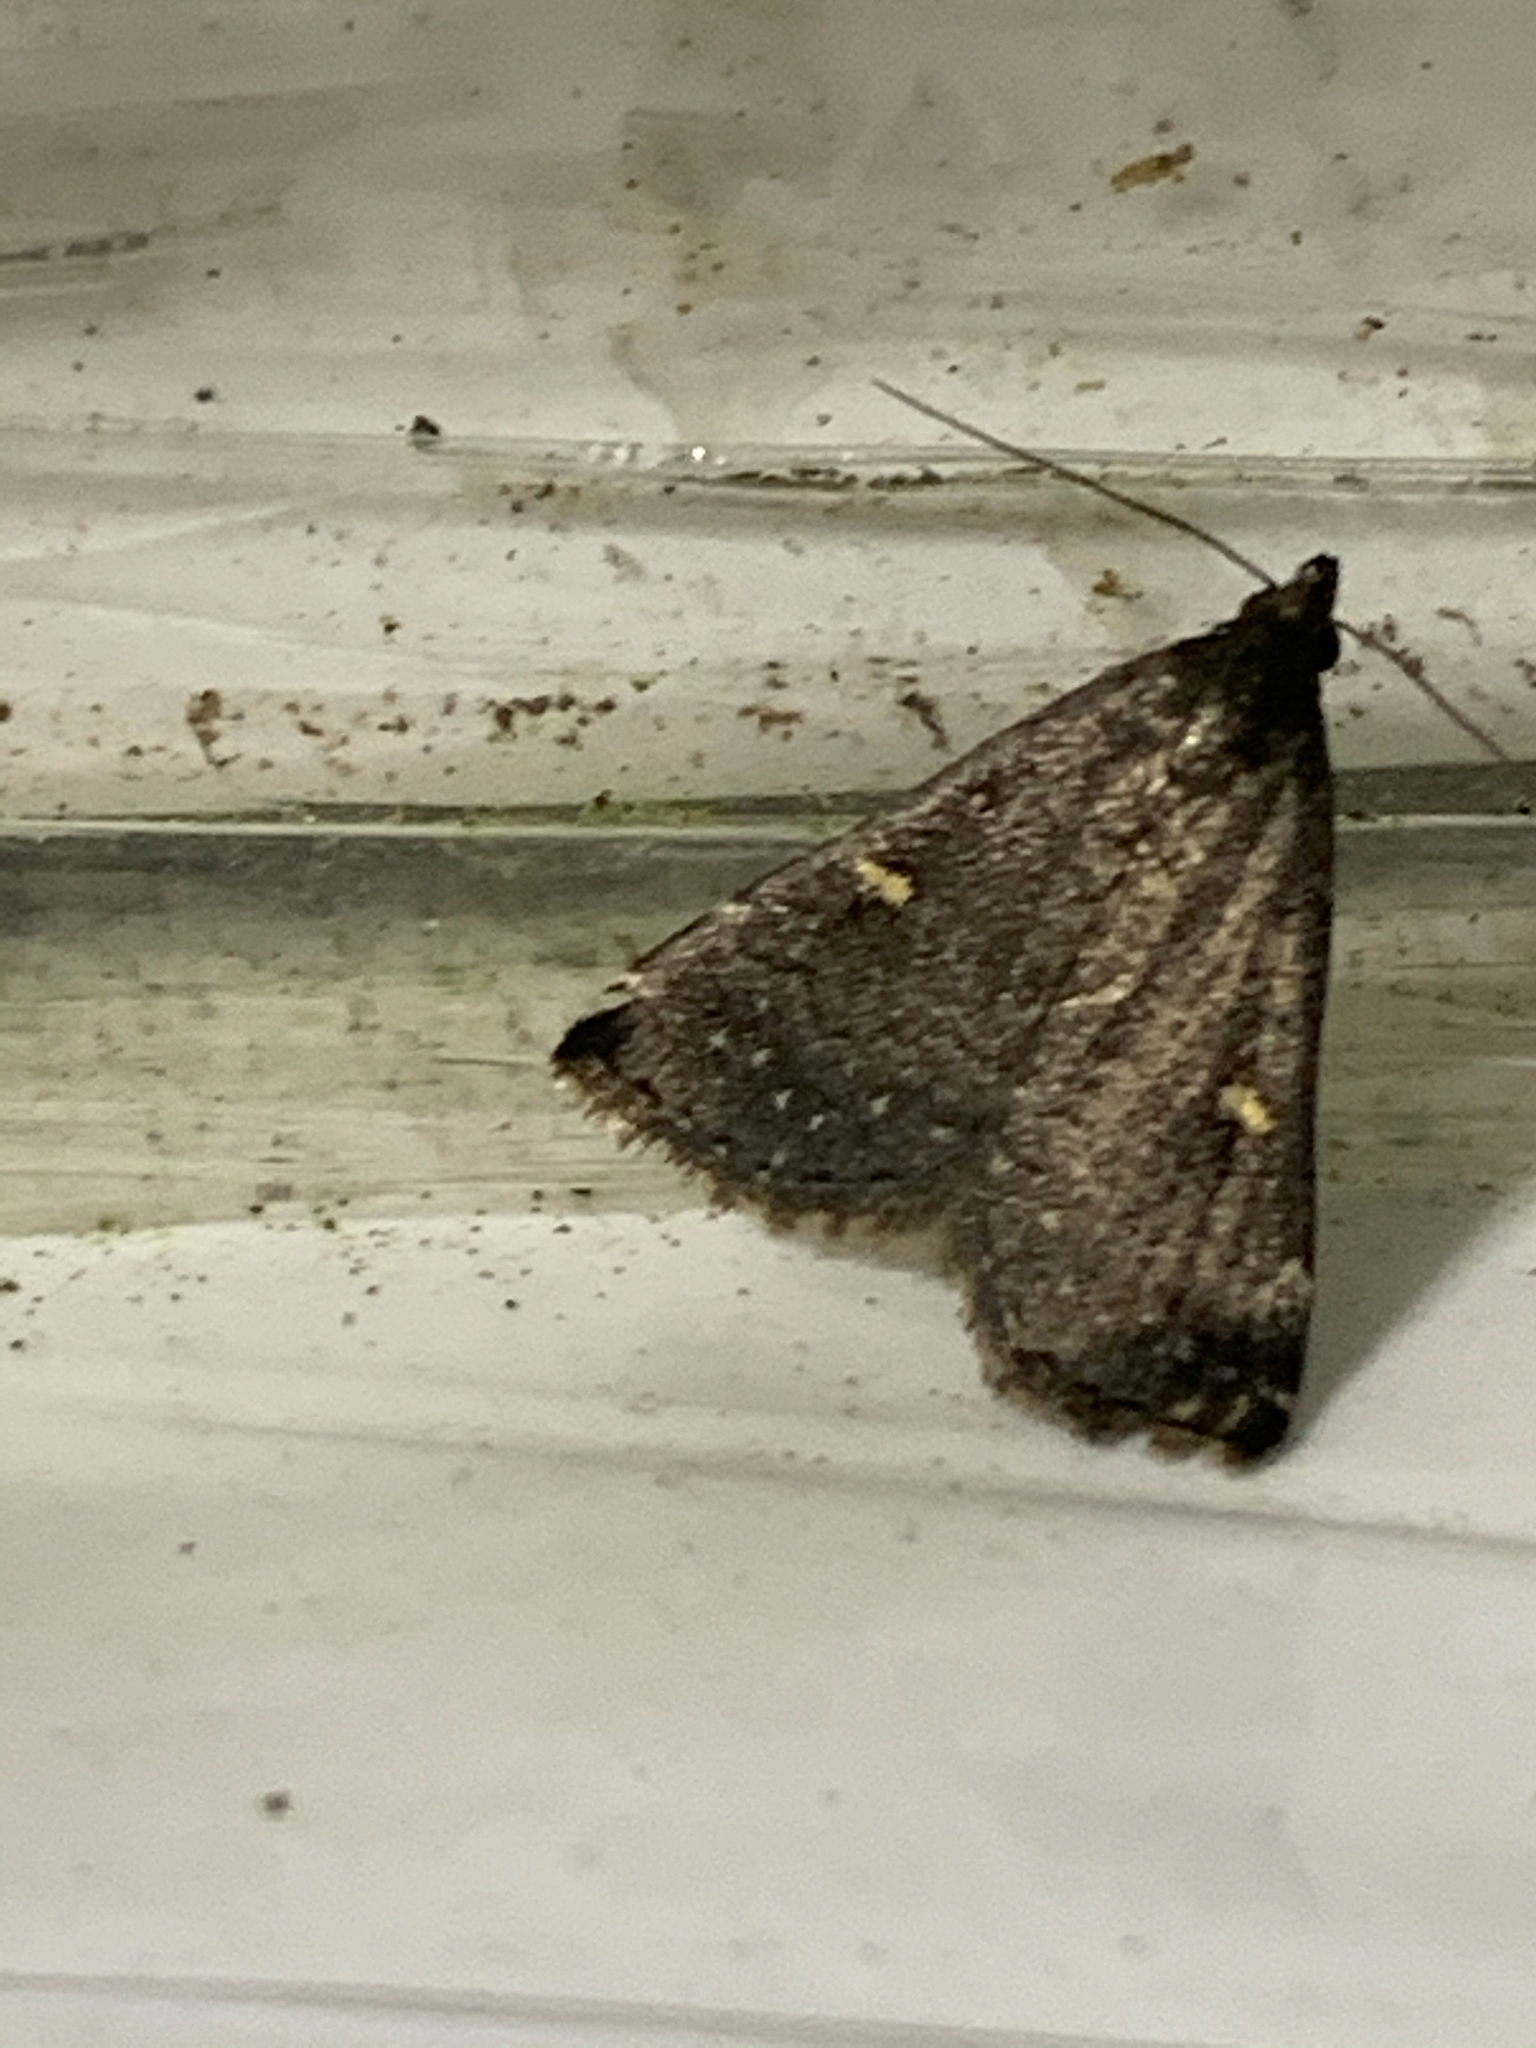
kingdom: Animalia
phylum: Arthropoda
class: Insecta
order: Lepidoptera
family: Erebidae
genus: Tetanolita
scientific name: Tetanolita mynesalis
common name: Smoky tetanolita moth
